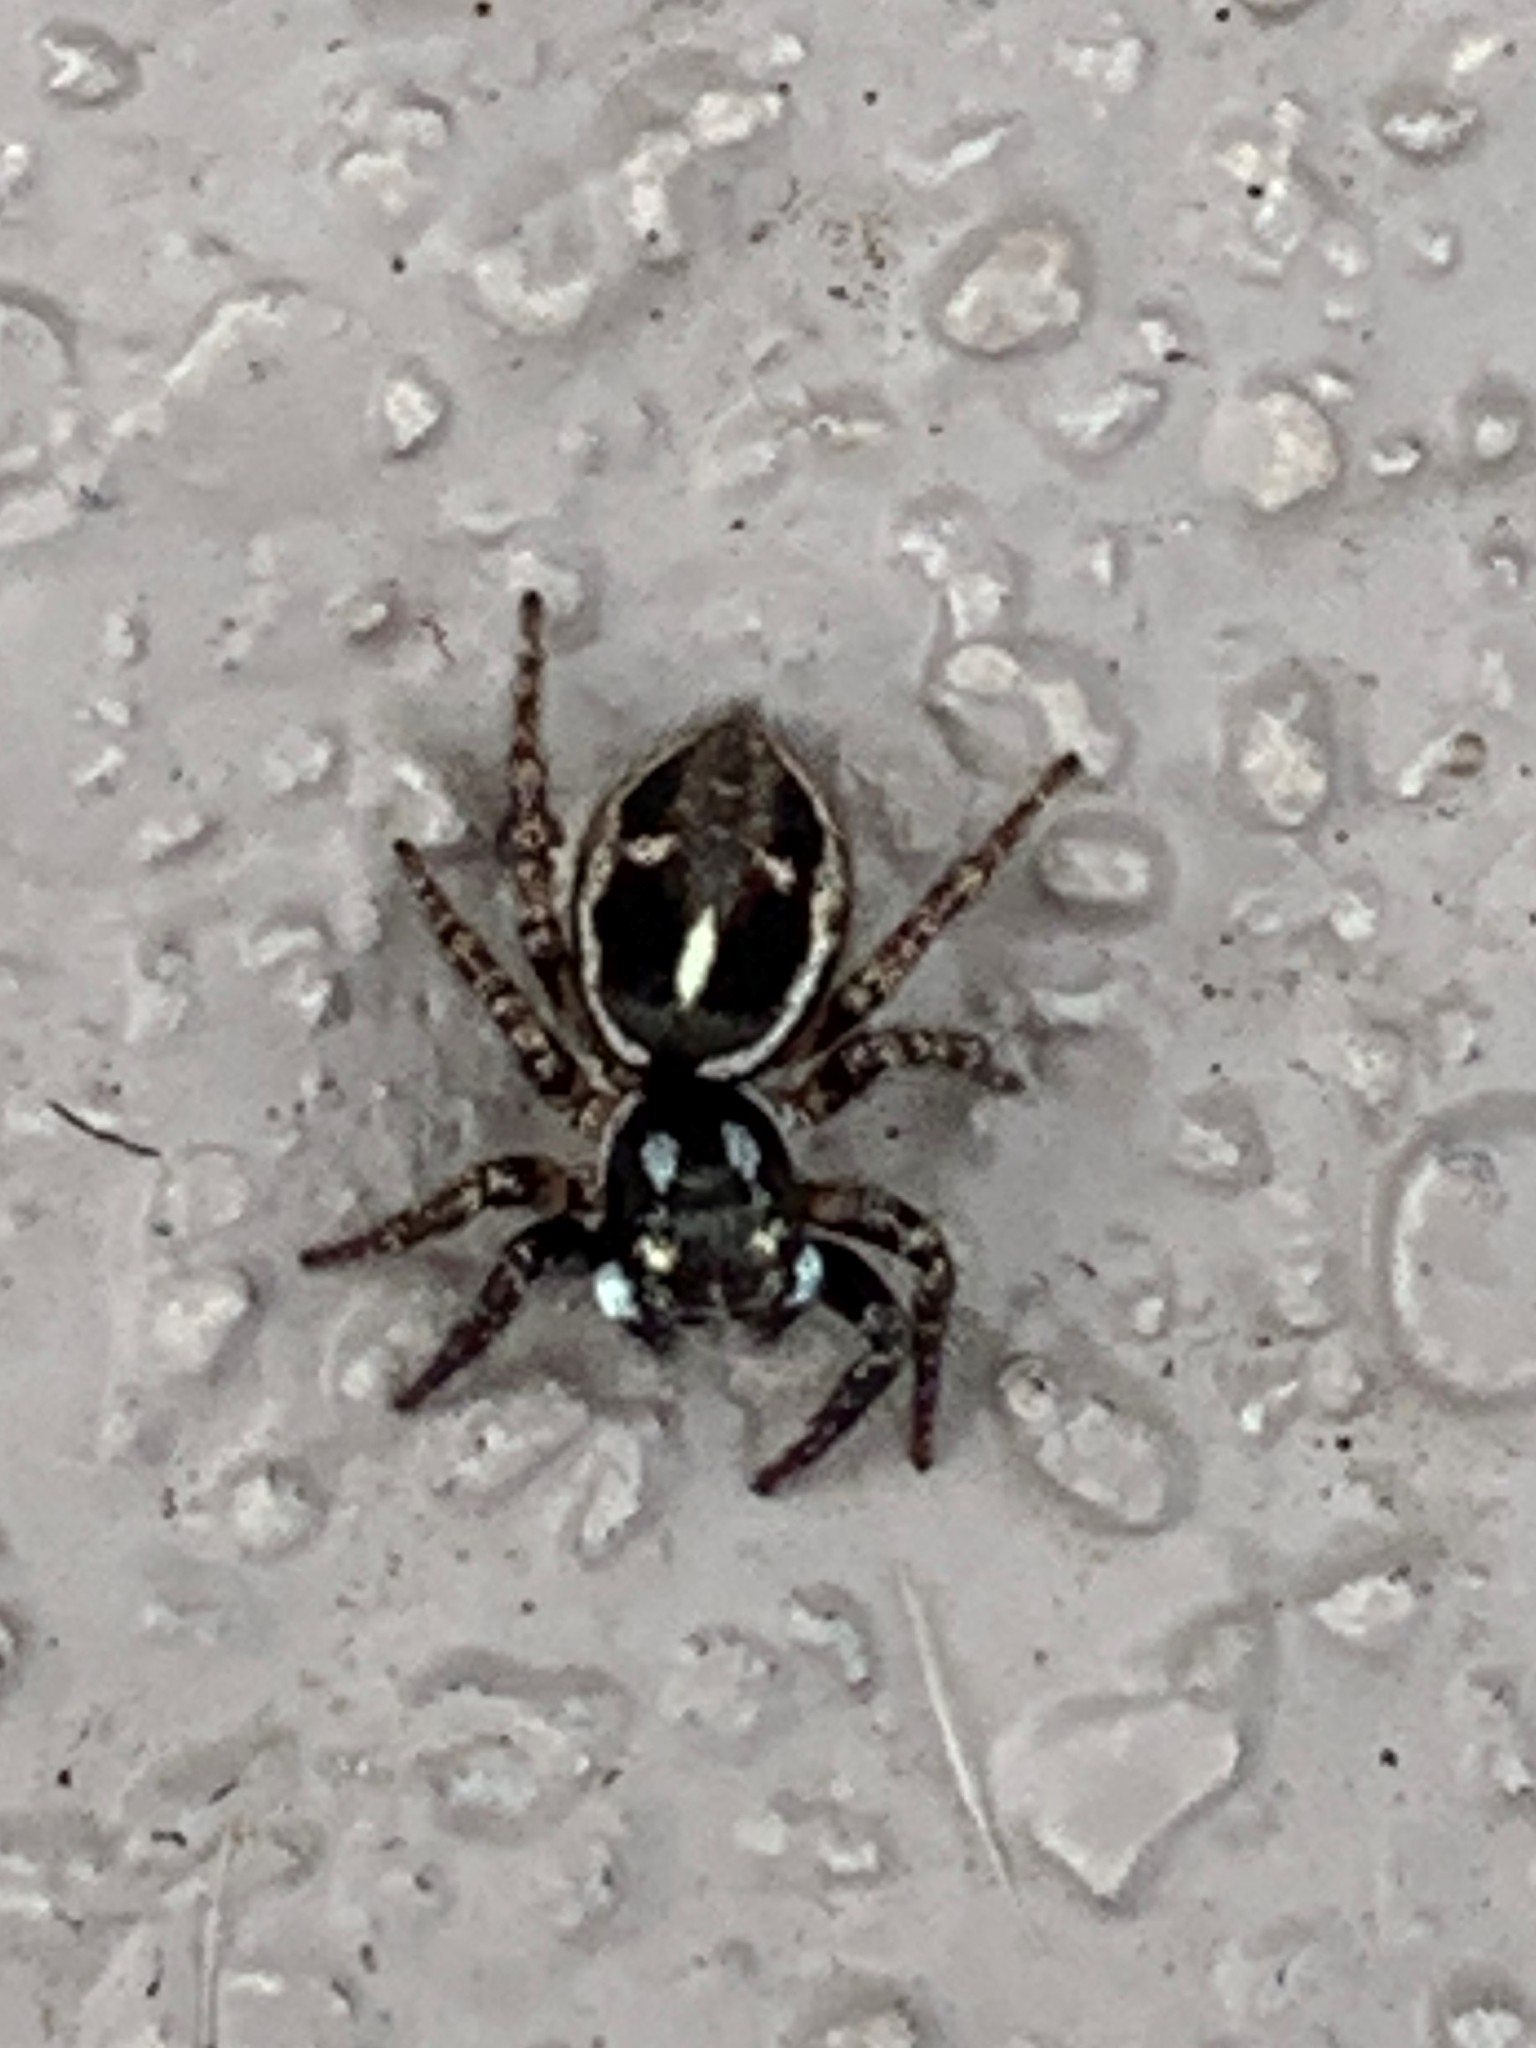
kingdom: Animalia
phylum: Arthropoda
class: Arachnida
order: Araneae
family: Salticidae
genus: Anasaitis
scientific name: Anasaitis canosa
